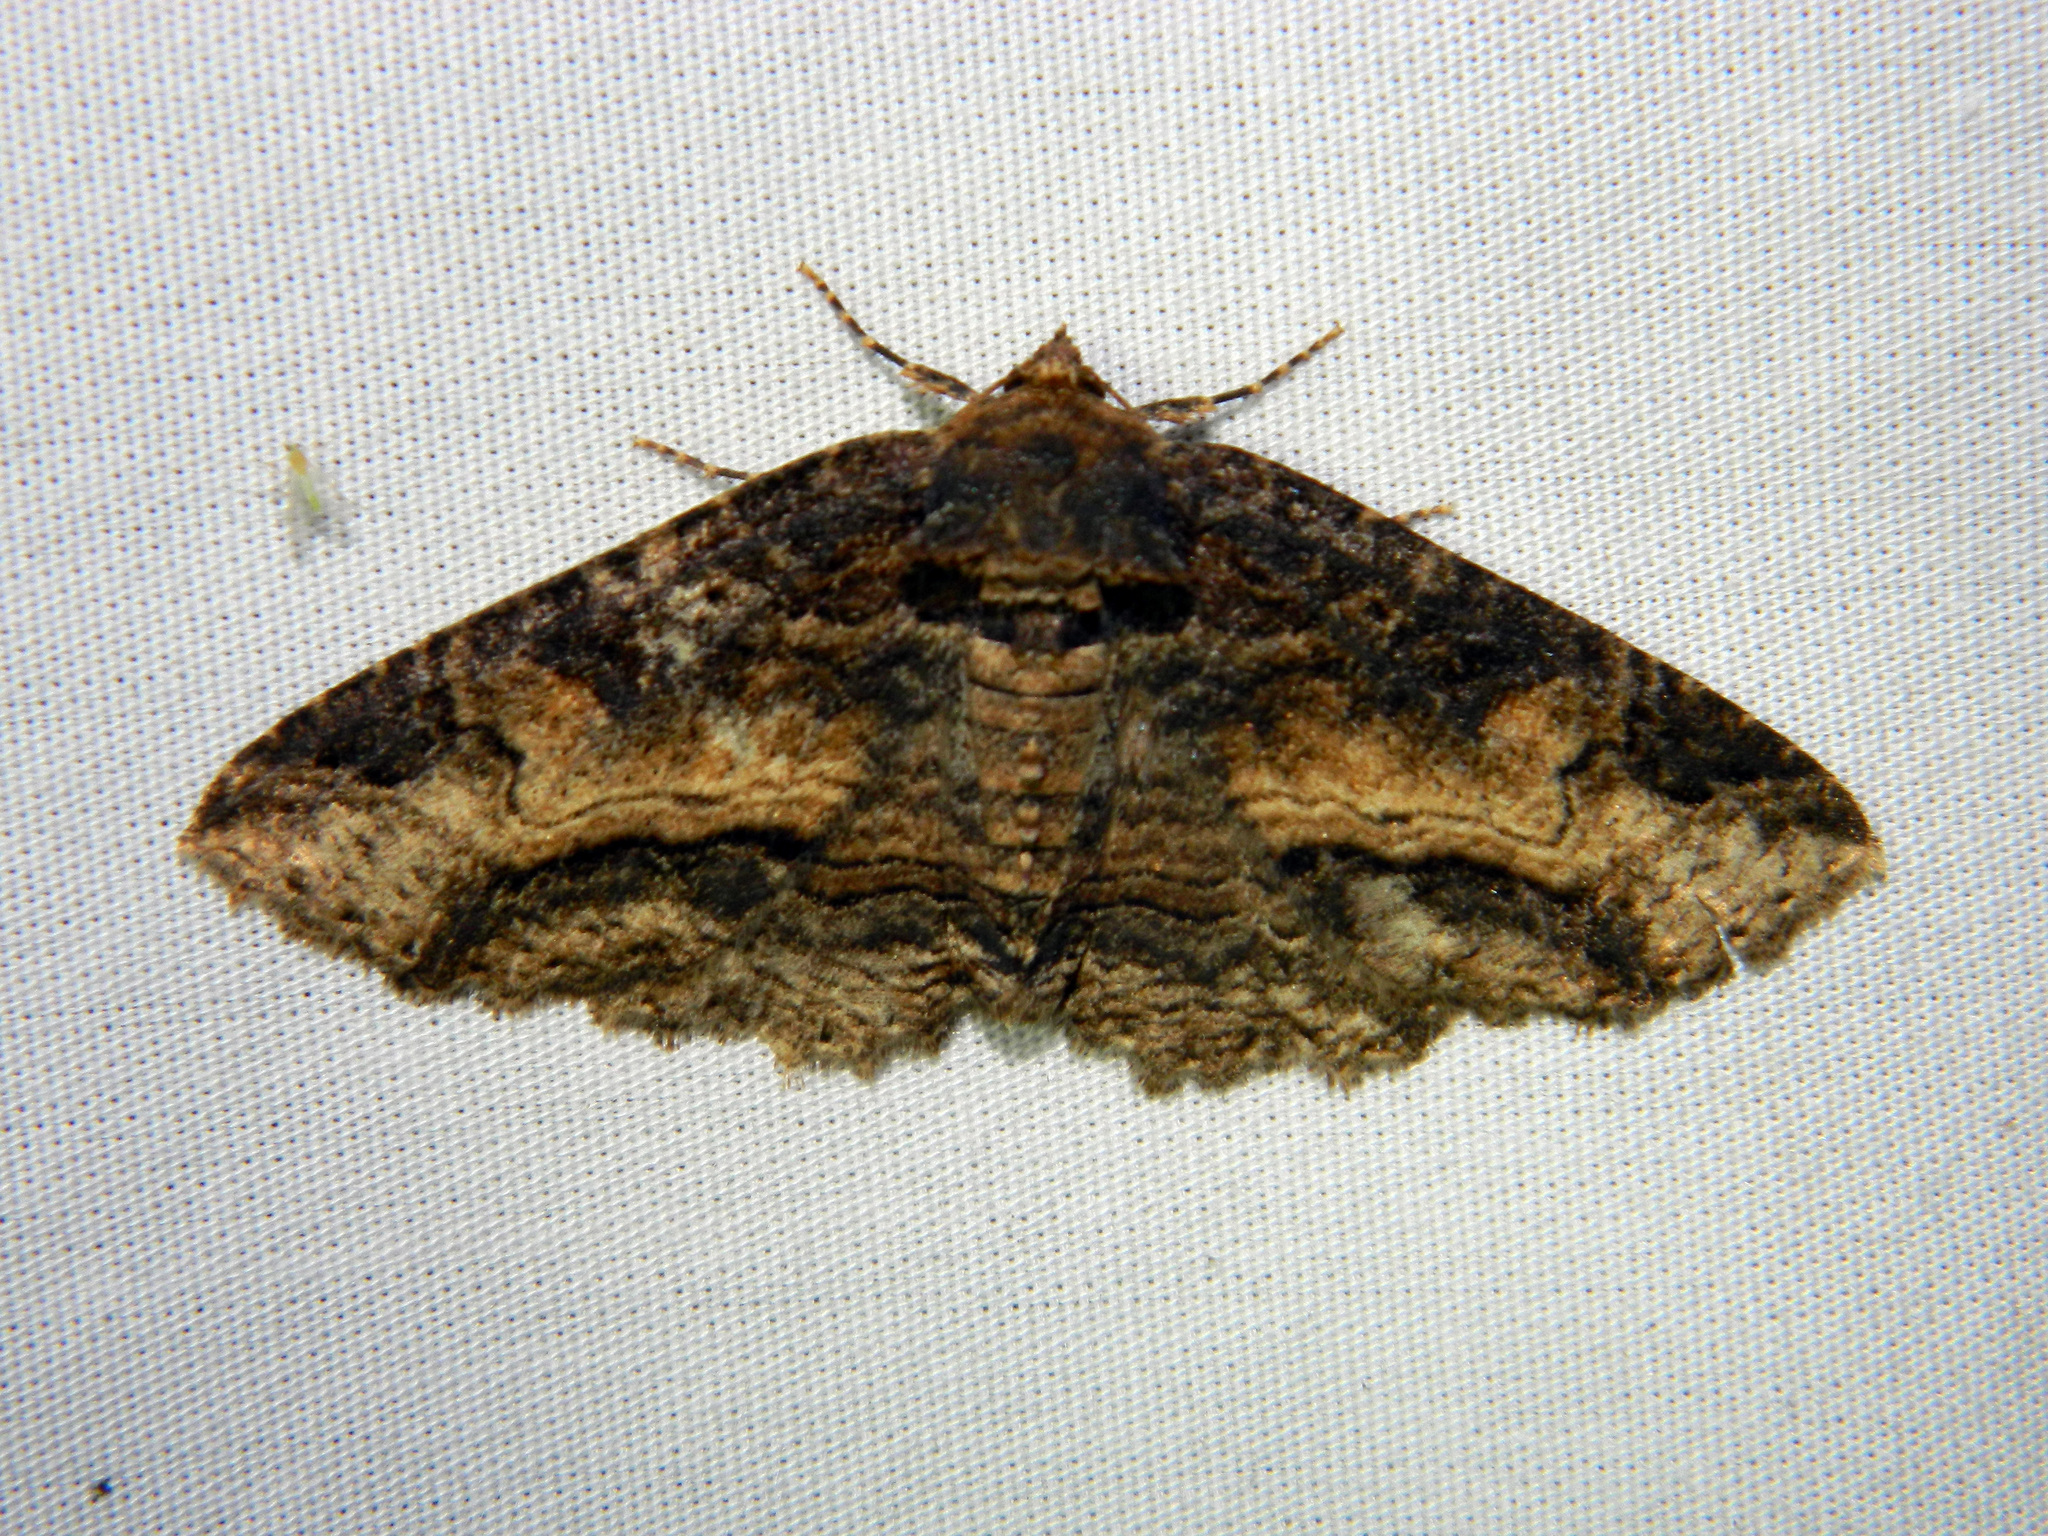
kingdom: Animalia
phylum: Arthropoda
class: Insecta
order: Lepidoptera
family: Erebidae
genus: Zale
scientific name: Zale minerea
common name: Colorful zale moth
